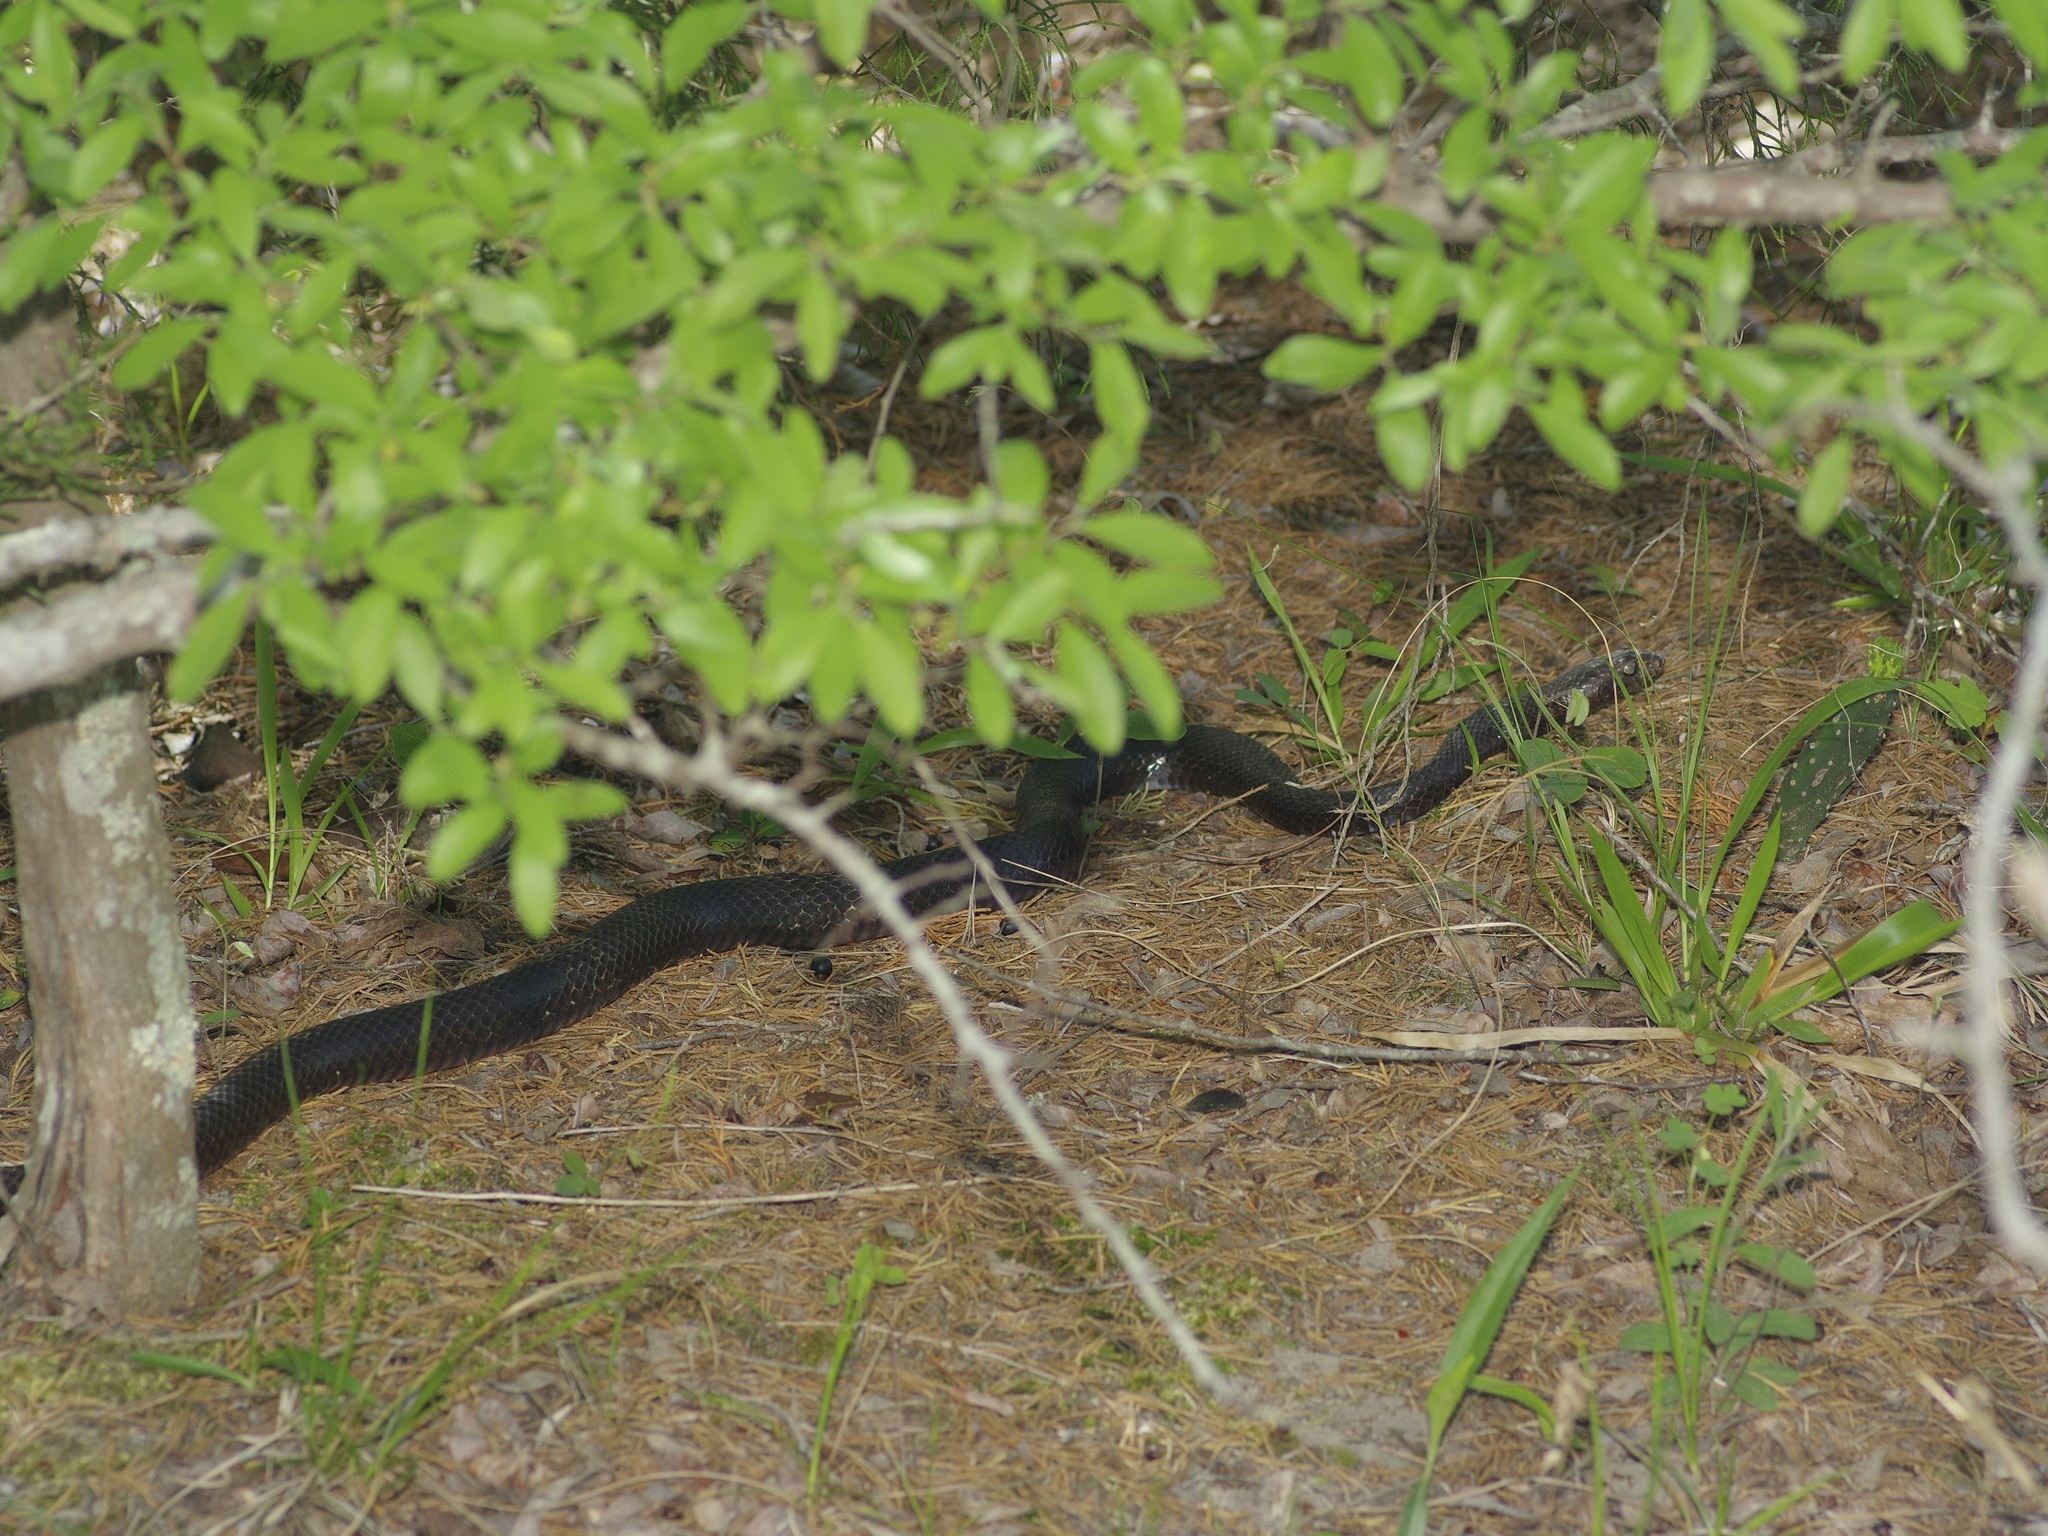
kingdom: Animalia
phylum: Chordata
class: Squamata
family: Colubridae
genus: Masticophis
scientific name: Masticophis flagellum
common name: Coachwhip
